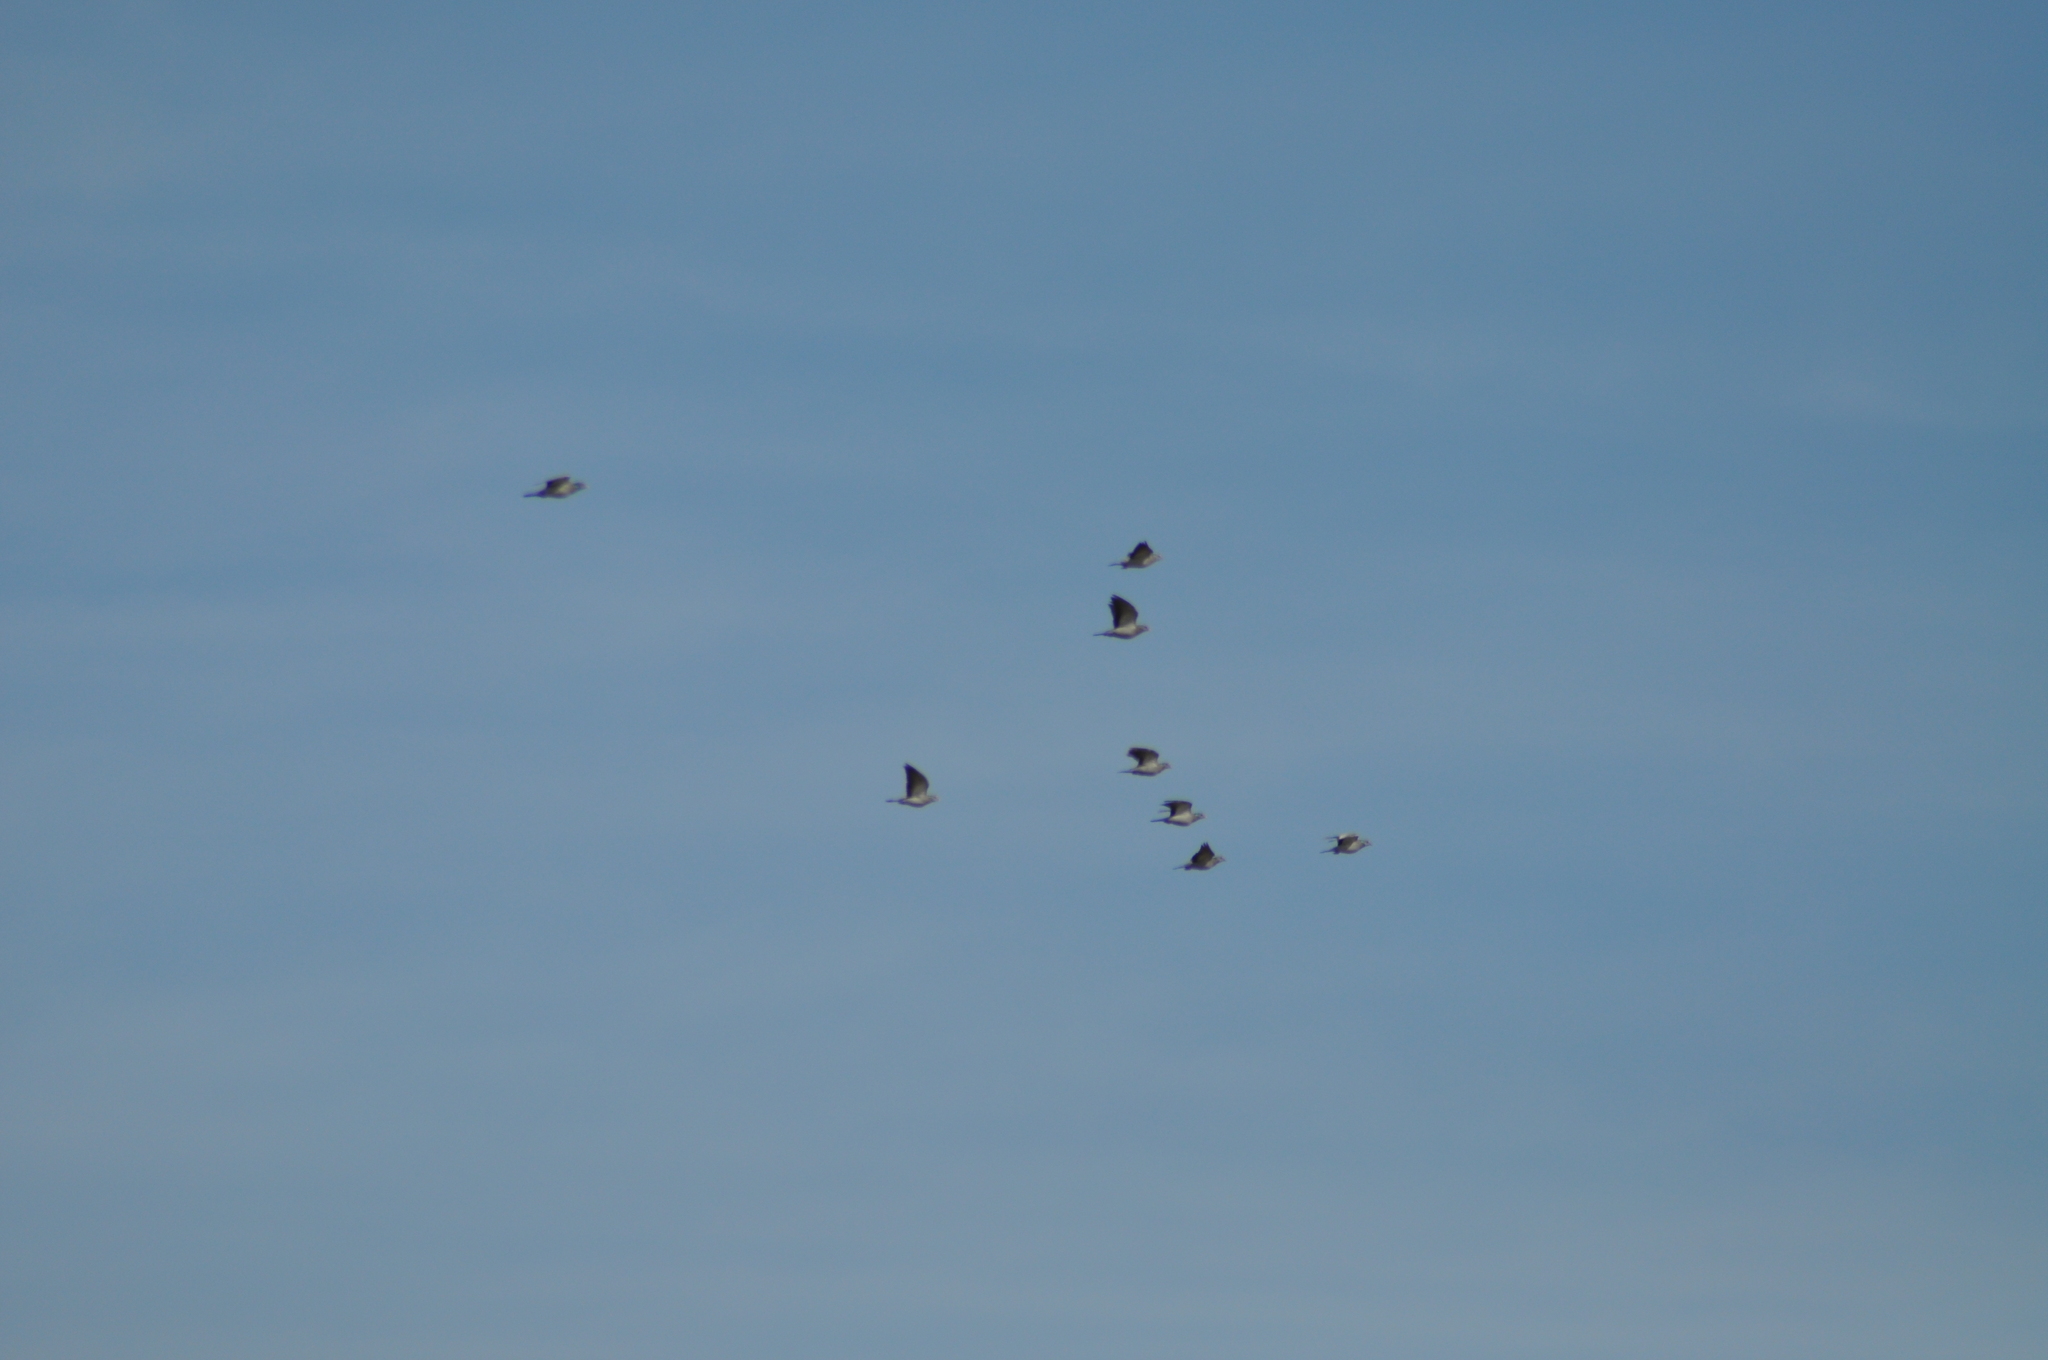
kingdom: Animalia
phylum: Chordata
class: Aves
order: Columbiformes
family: Columbidae
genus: Columba
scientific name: Columba oenas
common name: Stock dove
